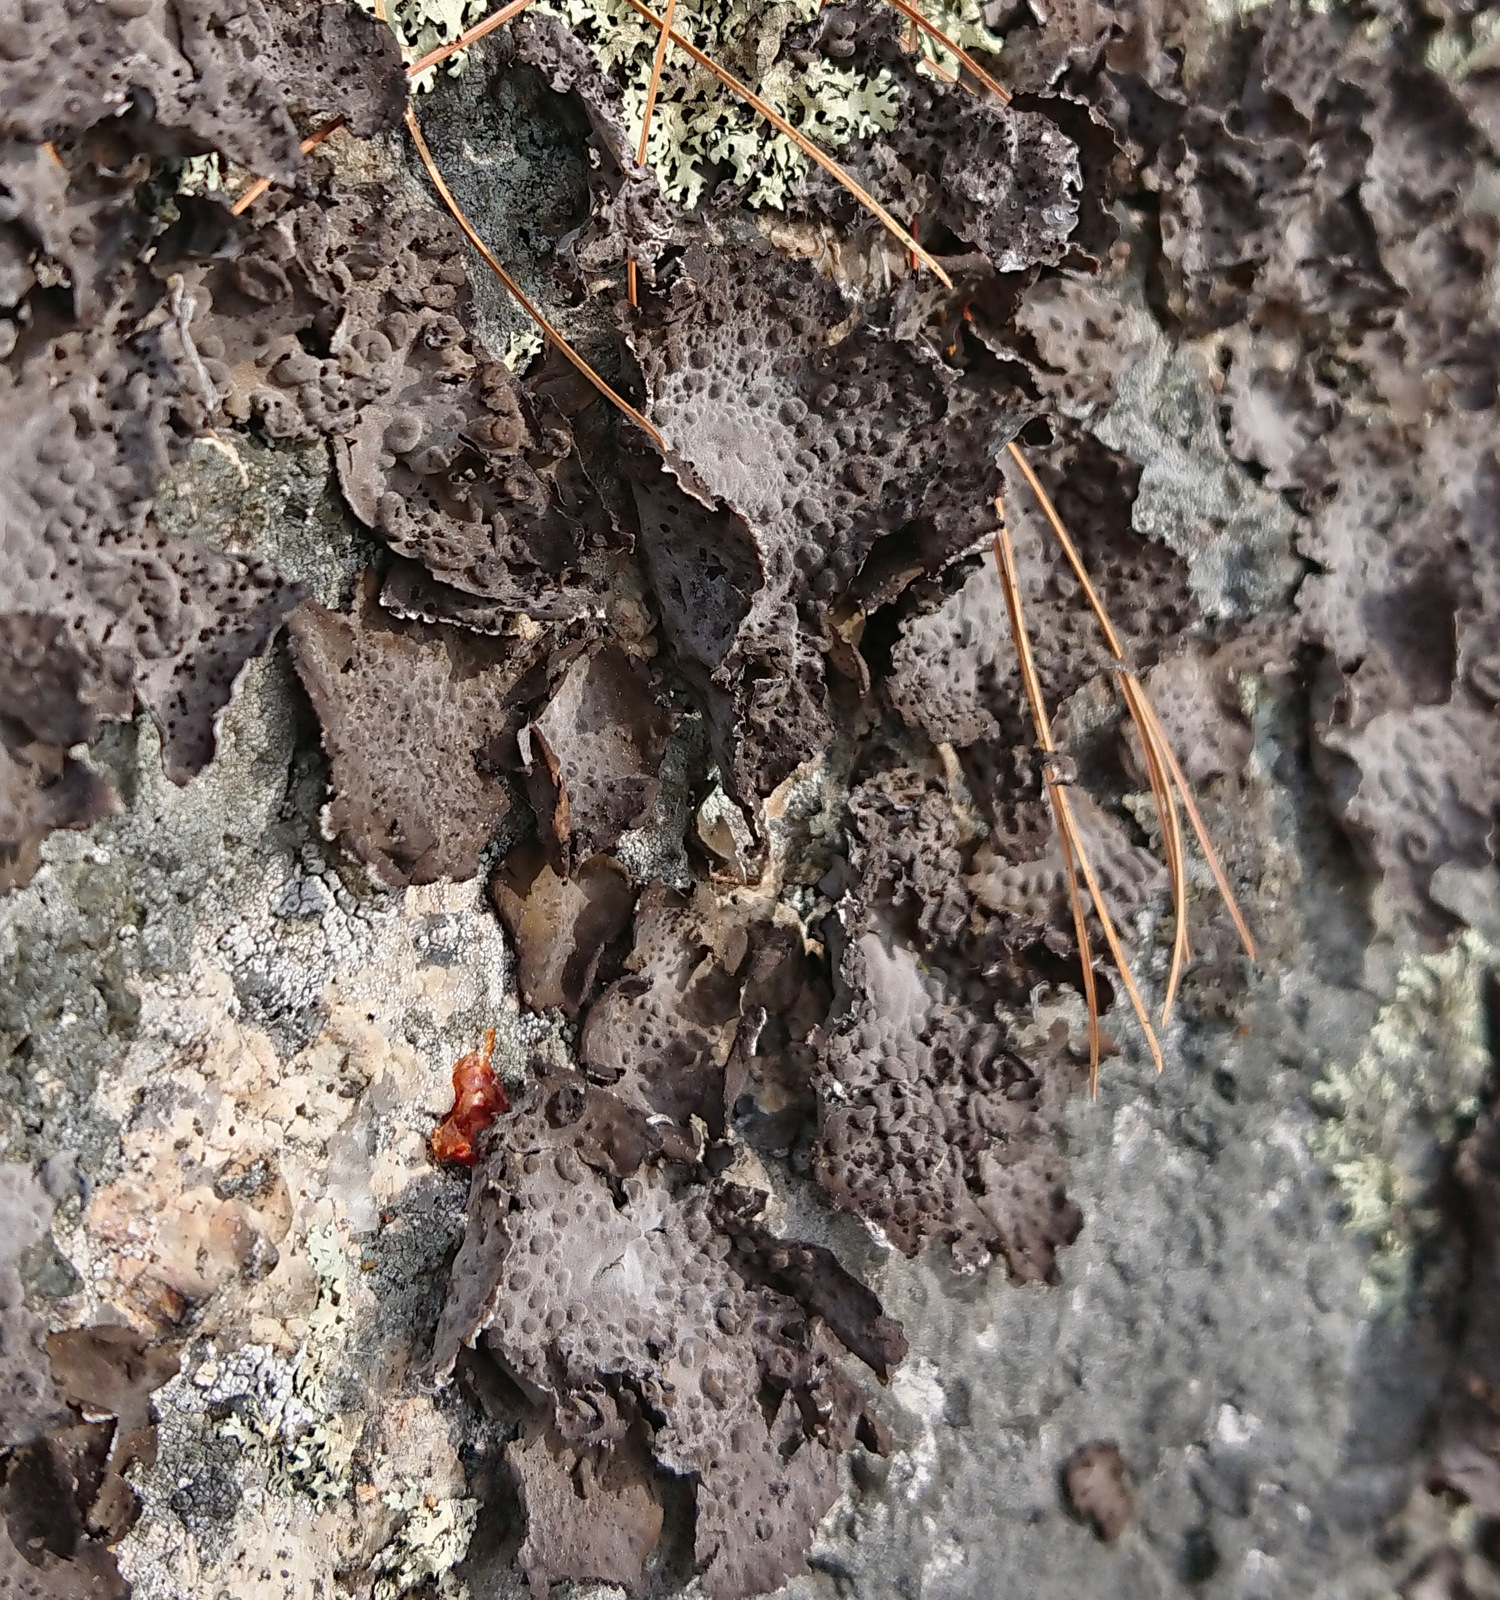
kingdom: Fungi
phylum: Ascomycota
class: Lecanoromycetes
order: Umbilicariales
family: Umbilicariaceae
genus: Lasallia
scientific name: Lasallia papulosa
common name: Common toadskin lichen
